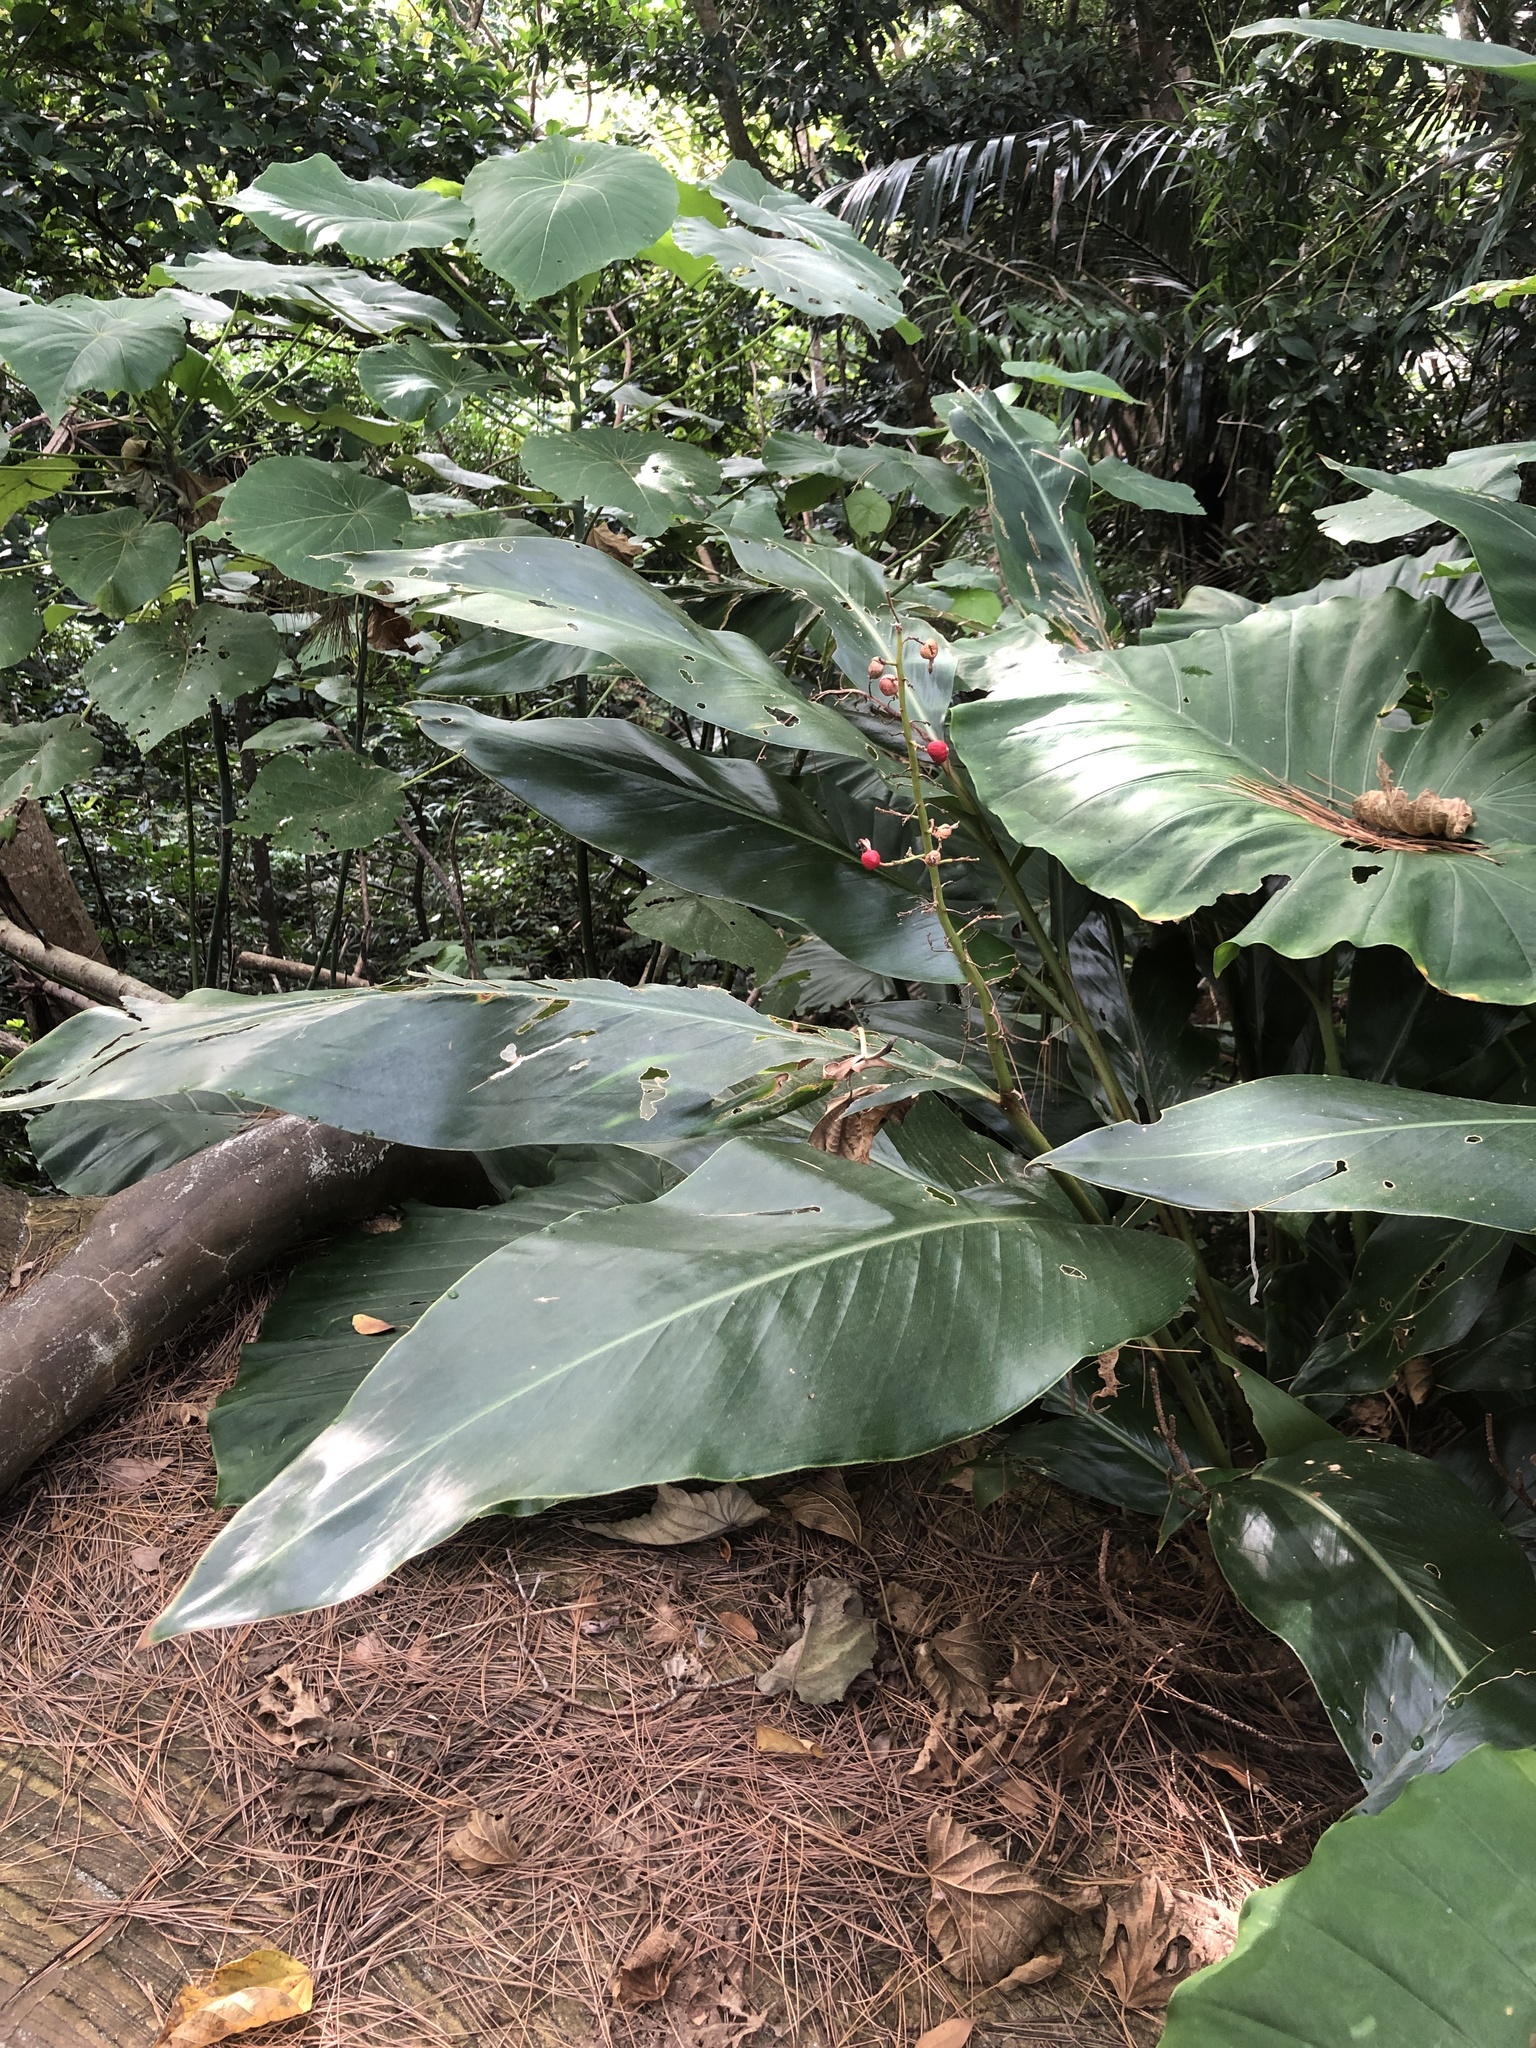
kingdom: Plantae
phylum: Tracheophyta
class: Liliopsida
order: Zingiberales
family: Zingiberaceae
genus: Alpinia
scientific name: Alpinia formosana
